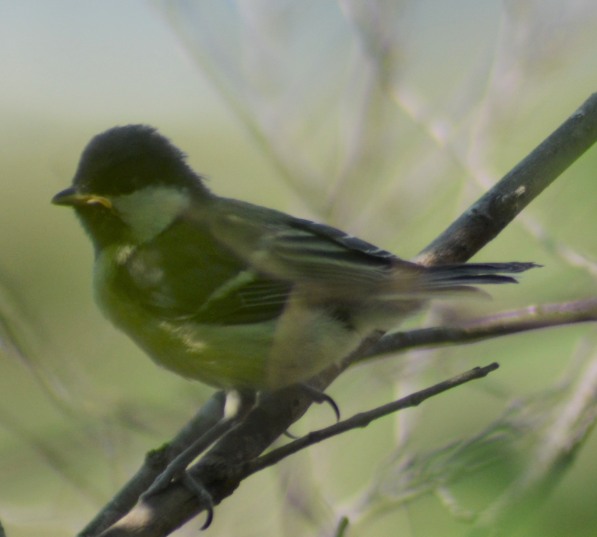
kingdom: Animalia
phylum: Chordata
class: Aves
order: Passeriformes
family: Paridae
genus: Parus
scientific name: Parus major
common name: Great tit
